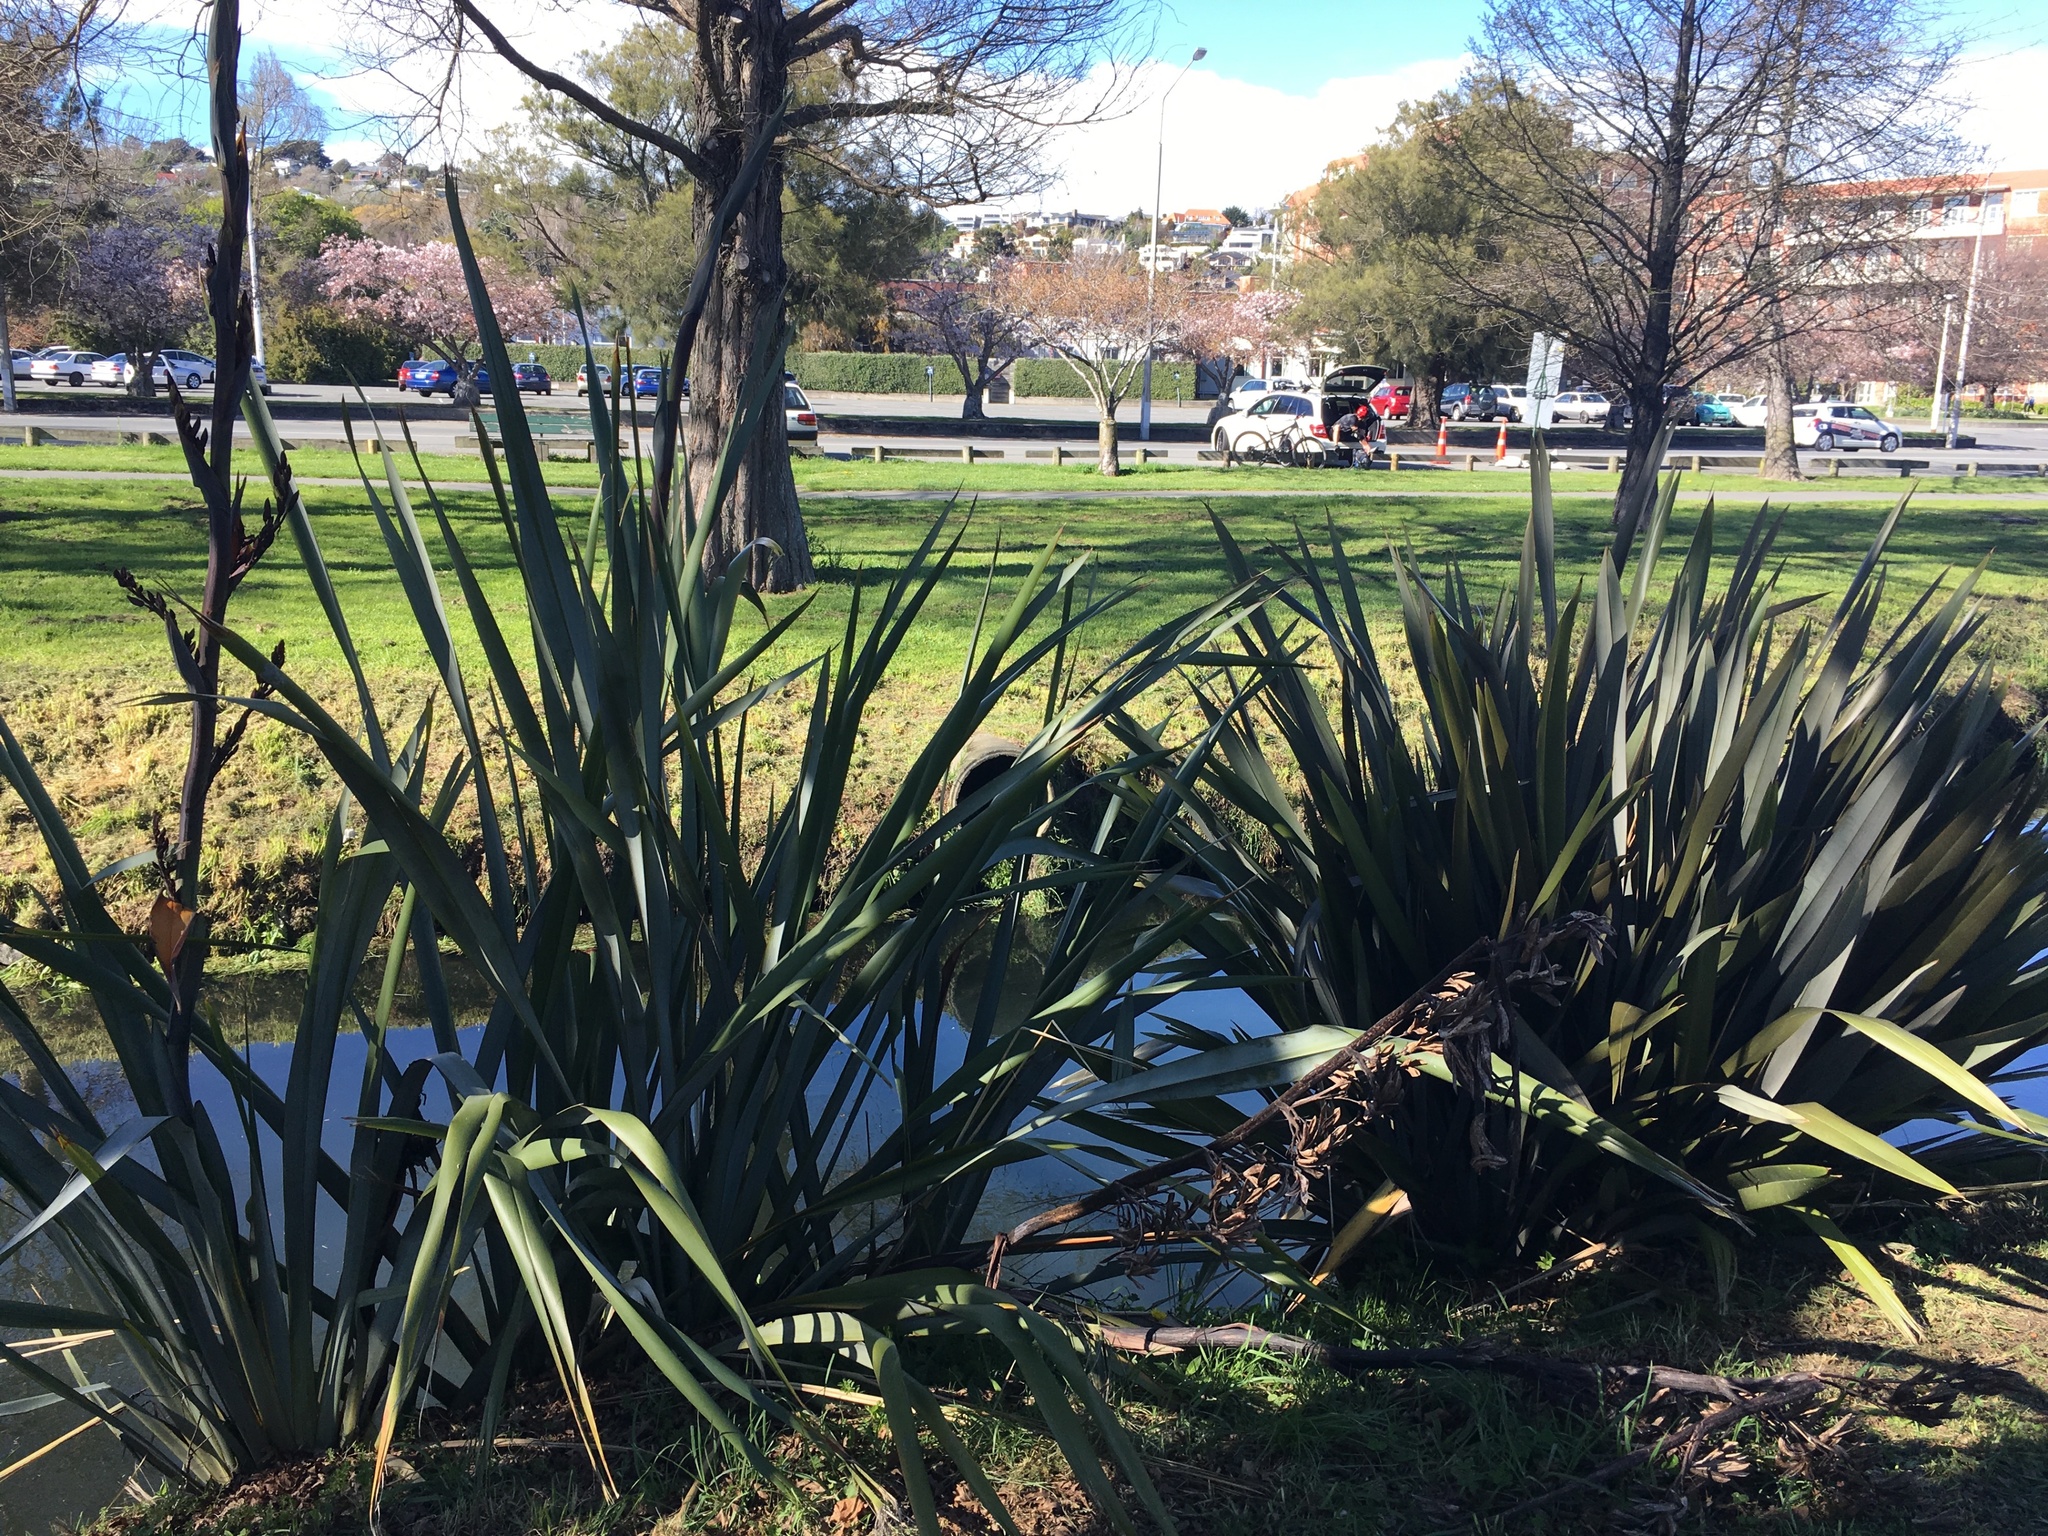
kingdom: Plantae
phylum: Tracheophyta
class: Liliopsida
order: Asparagales
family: Asphodelaceae
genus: Phormium
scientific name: Phormium tenax
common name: New zealand flax
